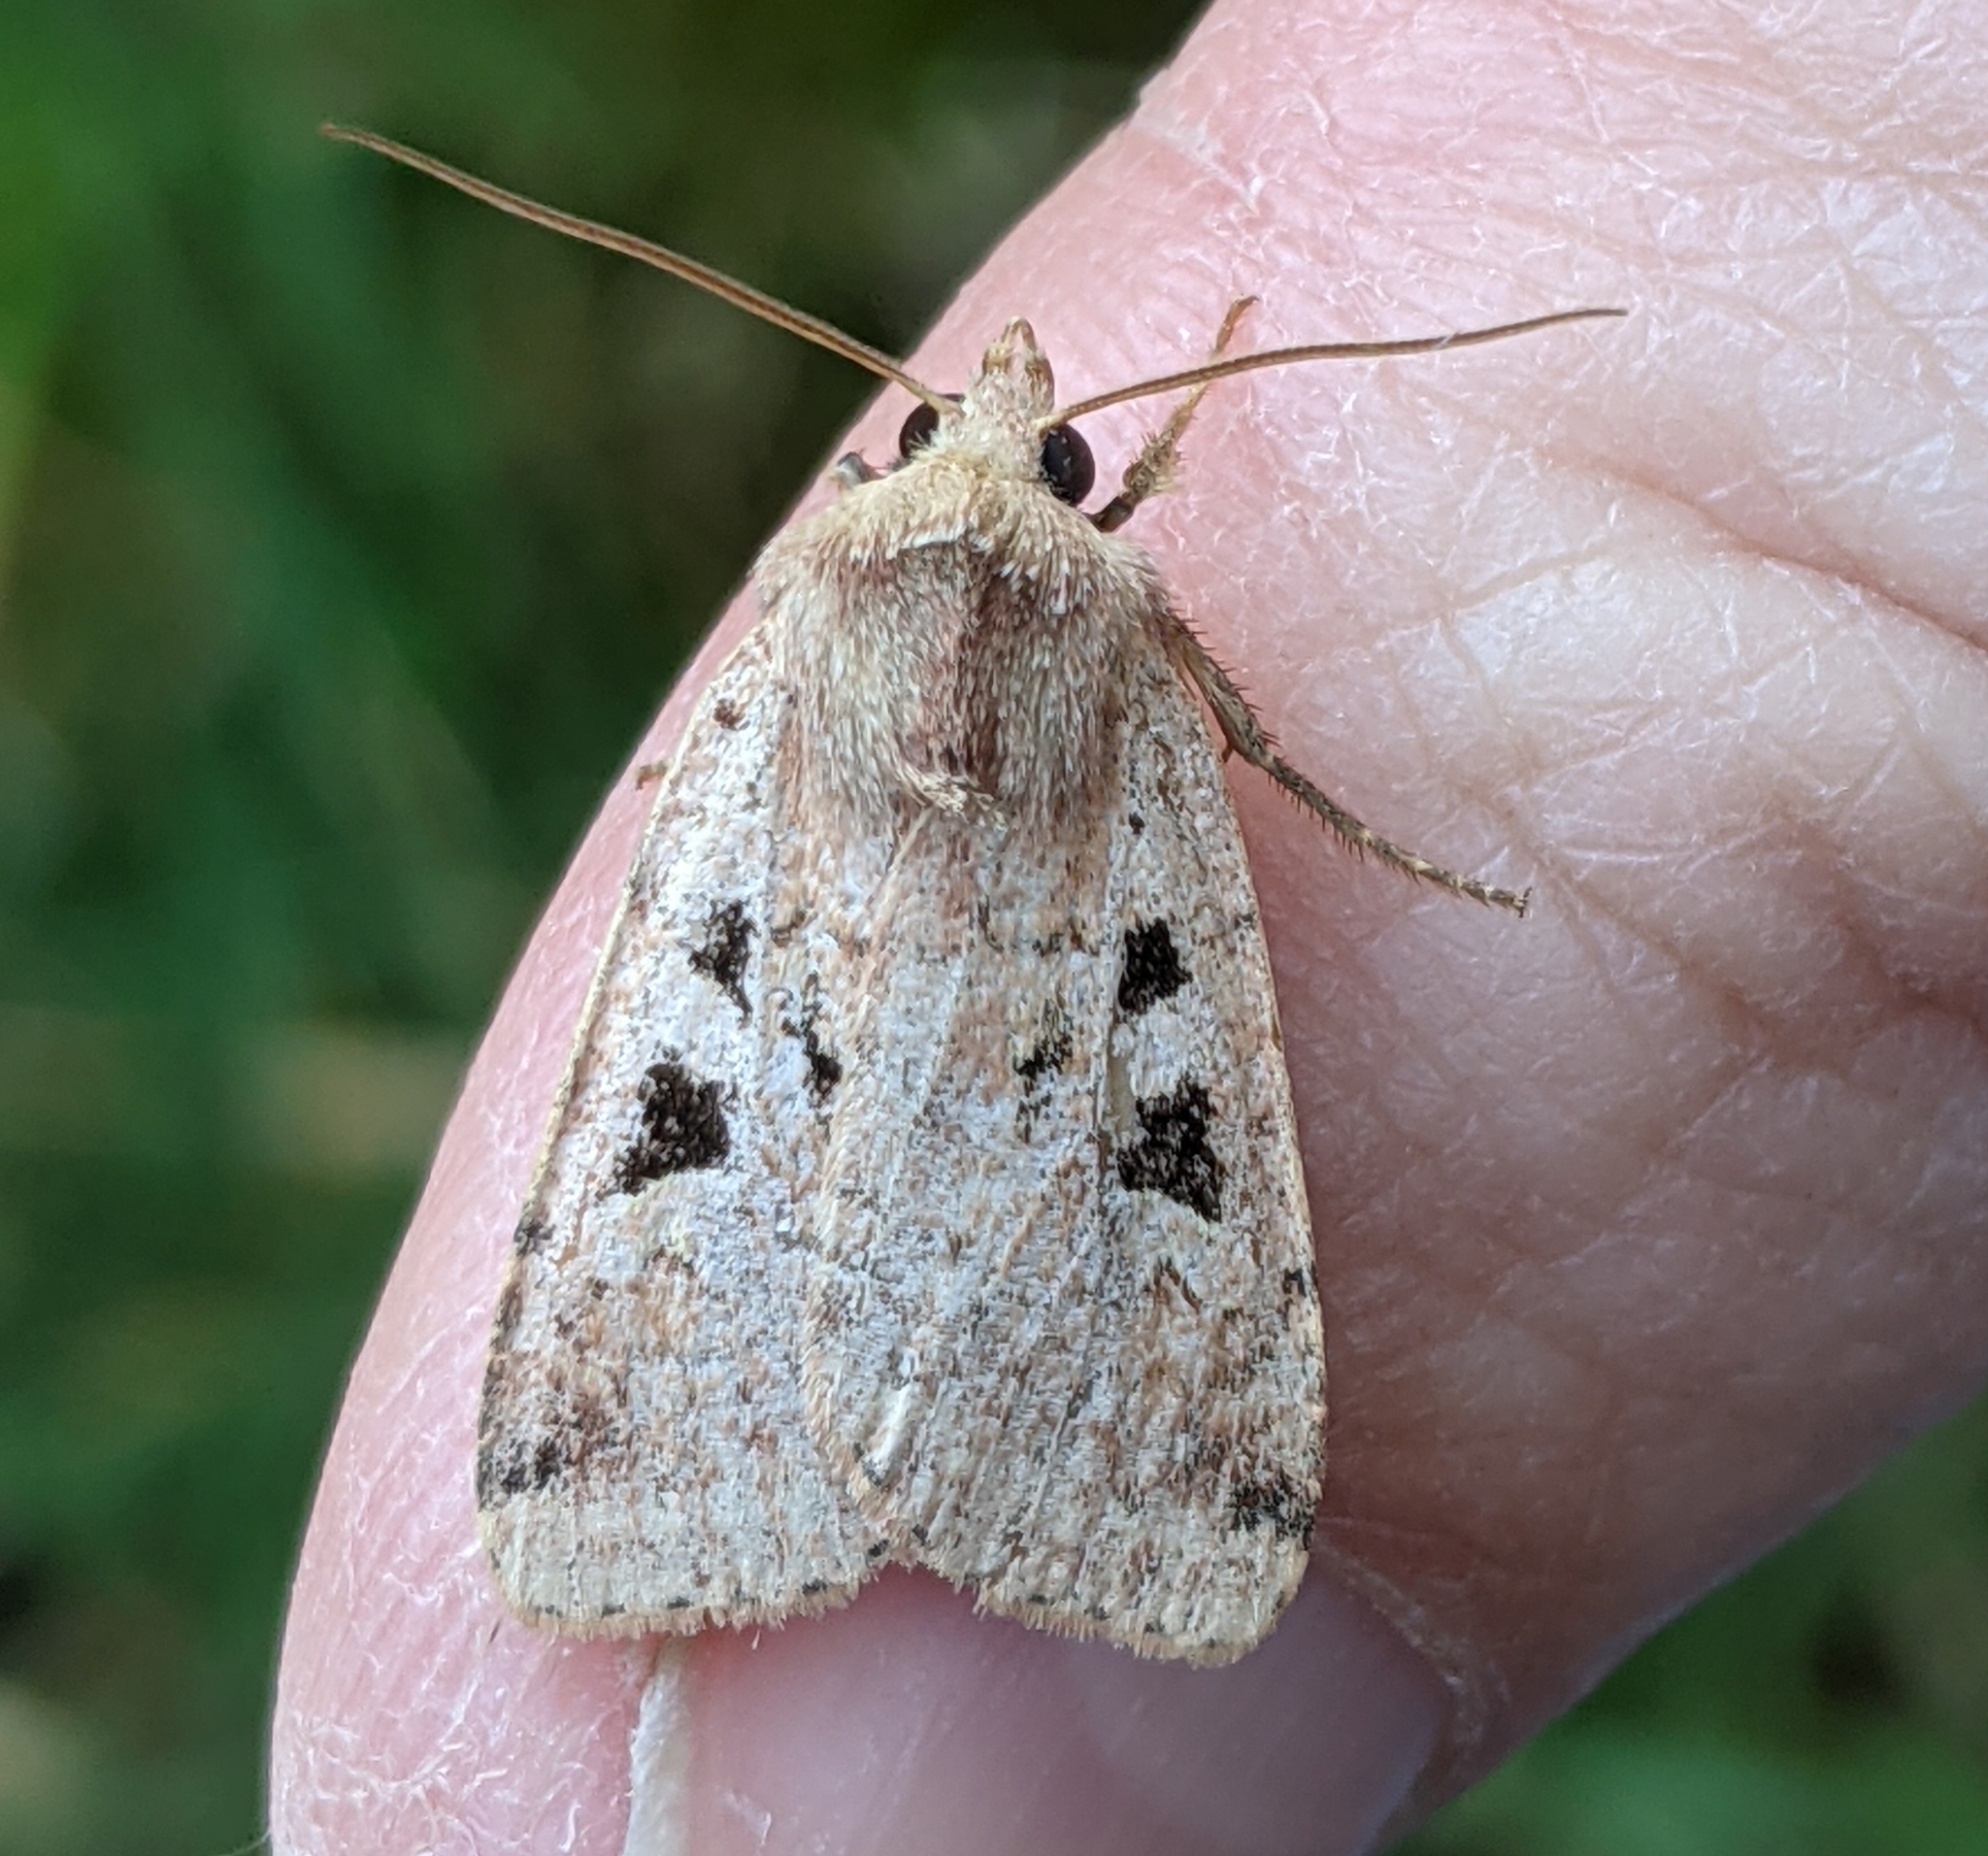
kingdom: Animalia
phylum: Arthropoda
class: Insecta
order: Lepidoptera
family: Noctuidae
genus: Diarsia
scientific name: Diarsia esurialis
